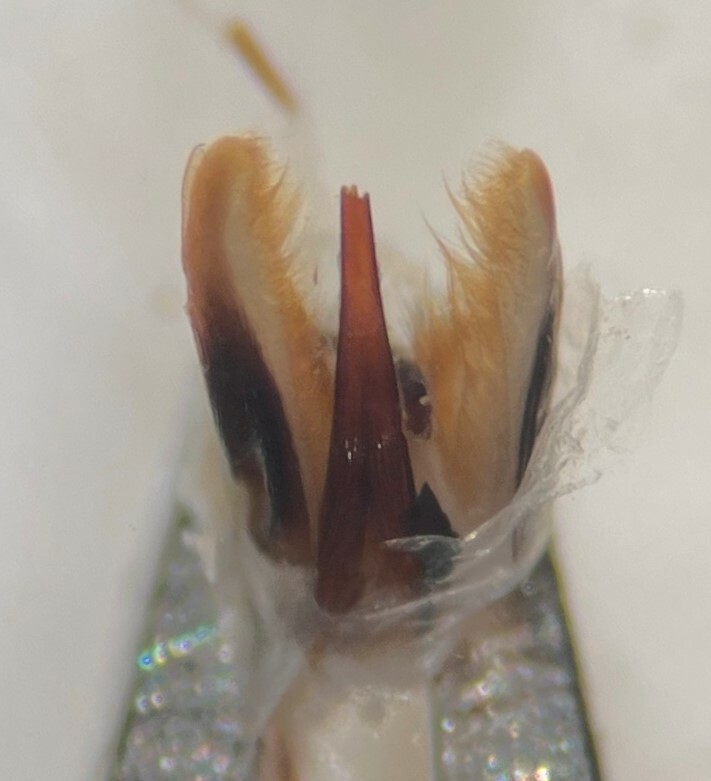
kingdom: Animalia
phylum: Arthropoda
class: Insecta
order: Coleoptera
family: Dytiscidae
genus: Hygrotus
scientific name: Hygrotus picatus
